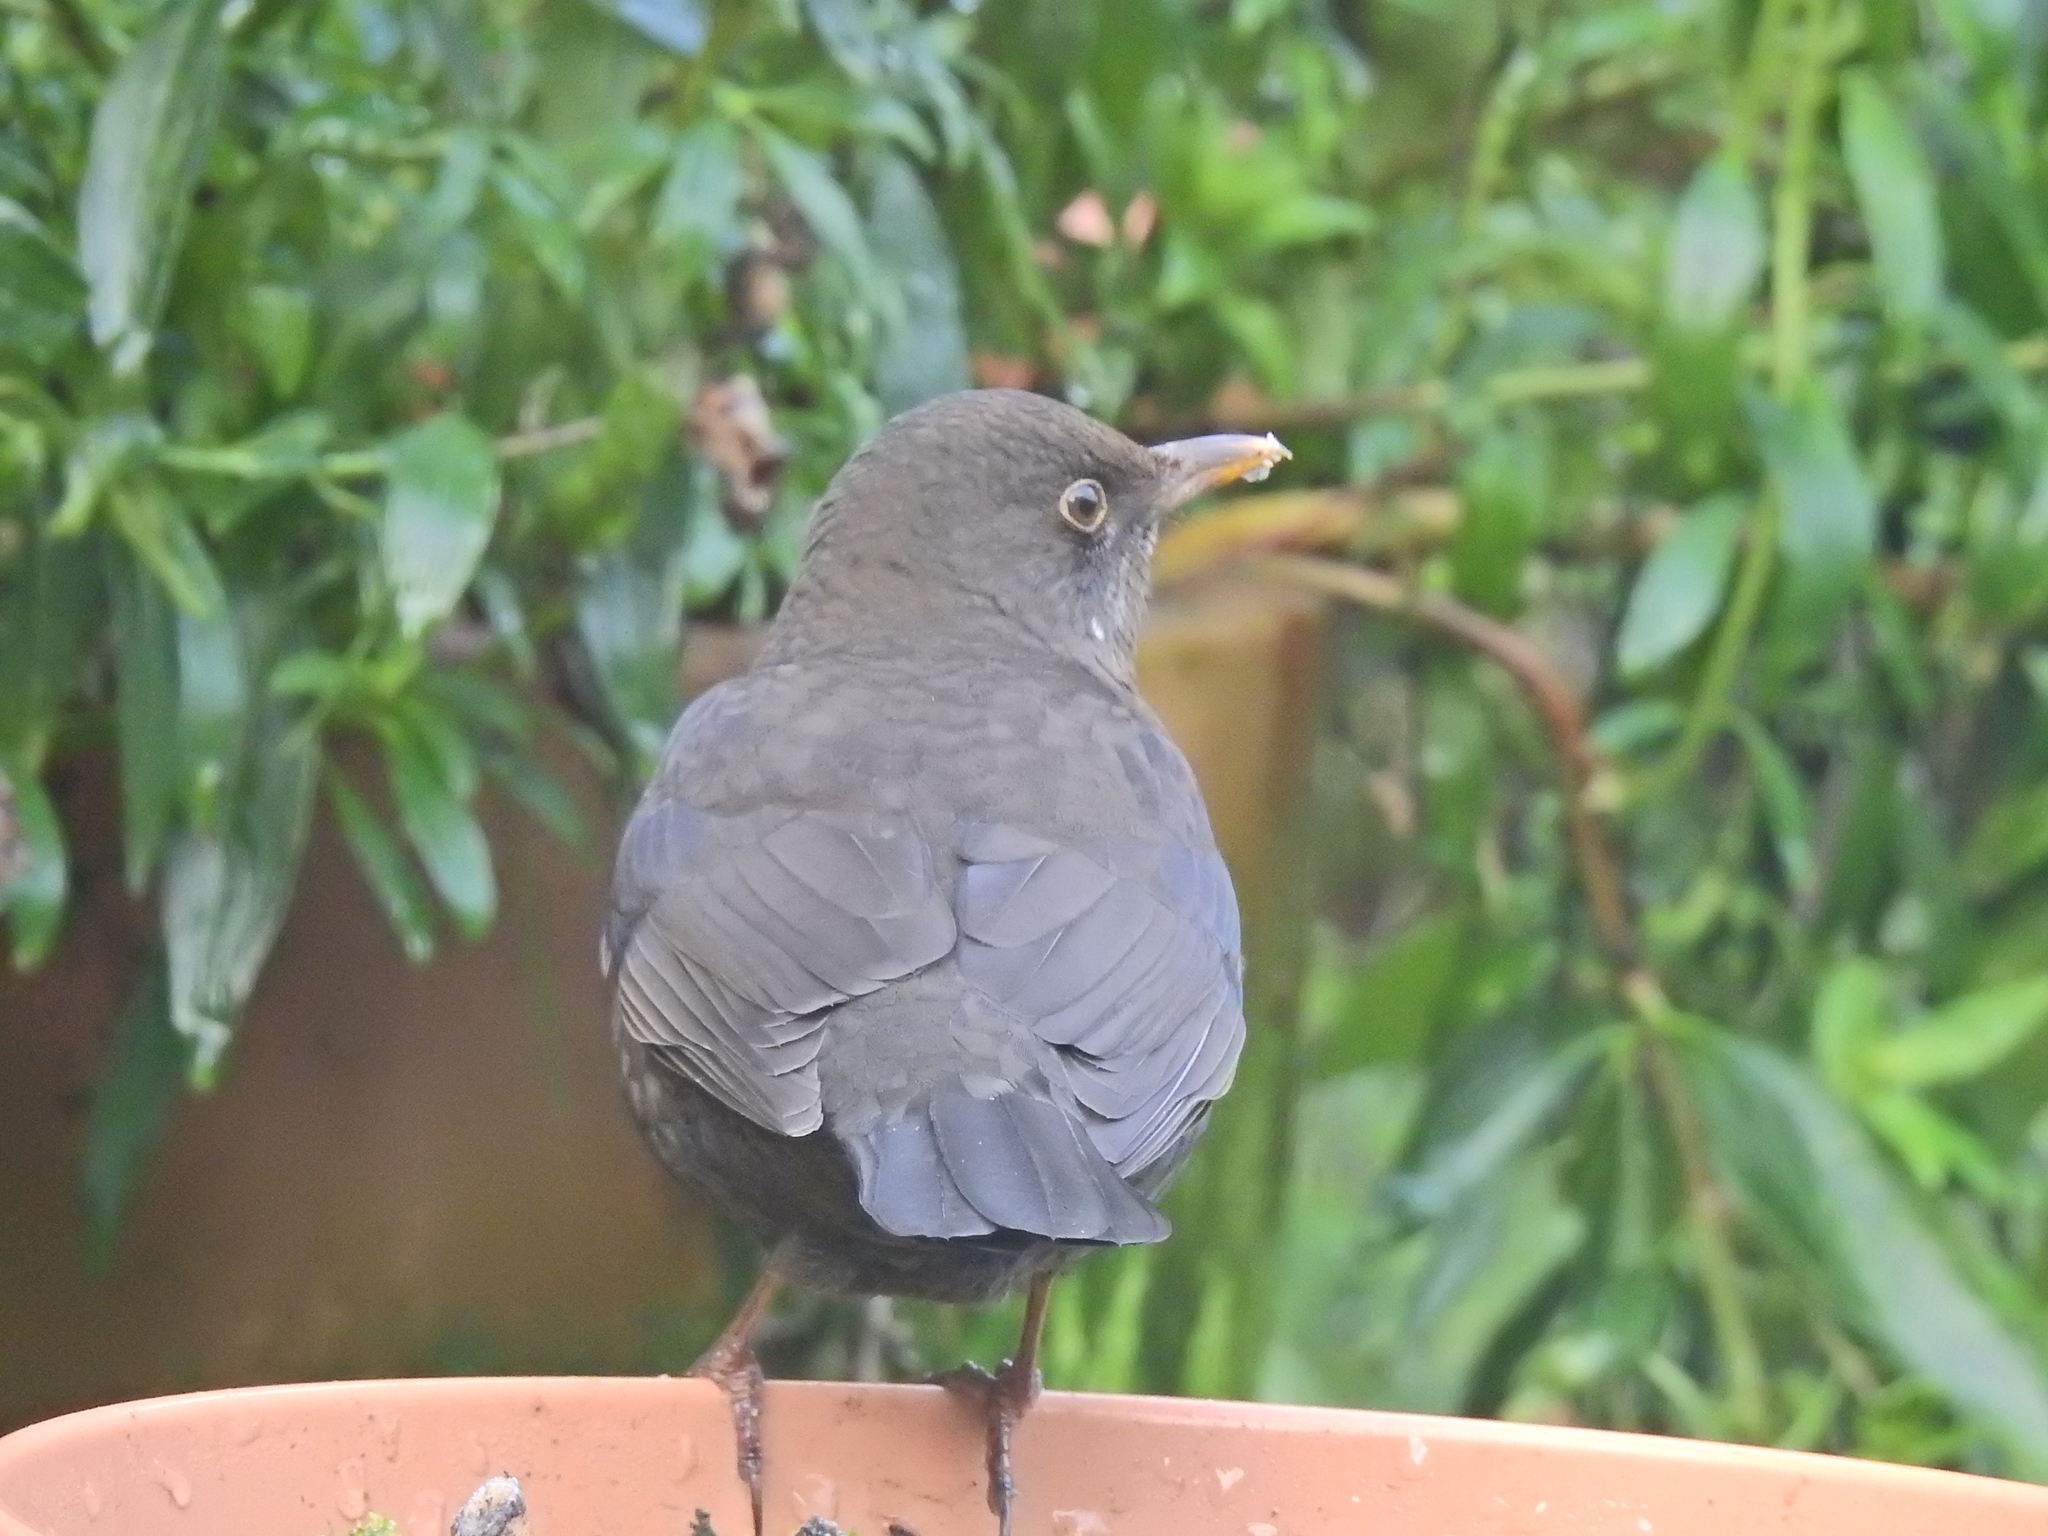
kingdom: Animalia
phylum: Chordata
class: Aves
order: Passeriformes
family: Turdidae
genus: Turdus
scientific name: Turdus merula
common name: Common blackbird
